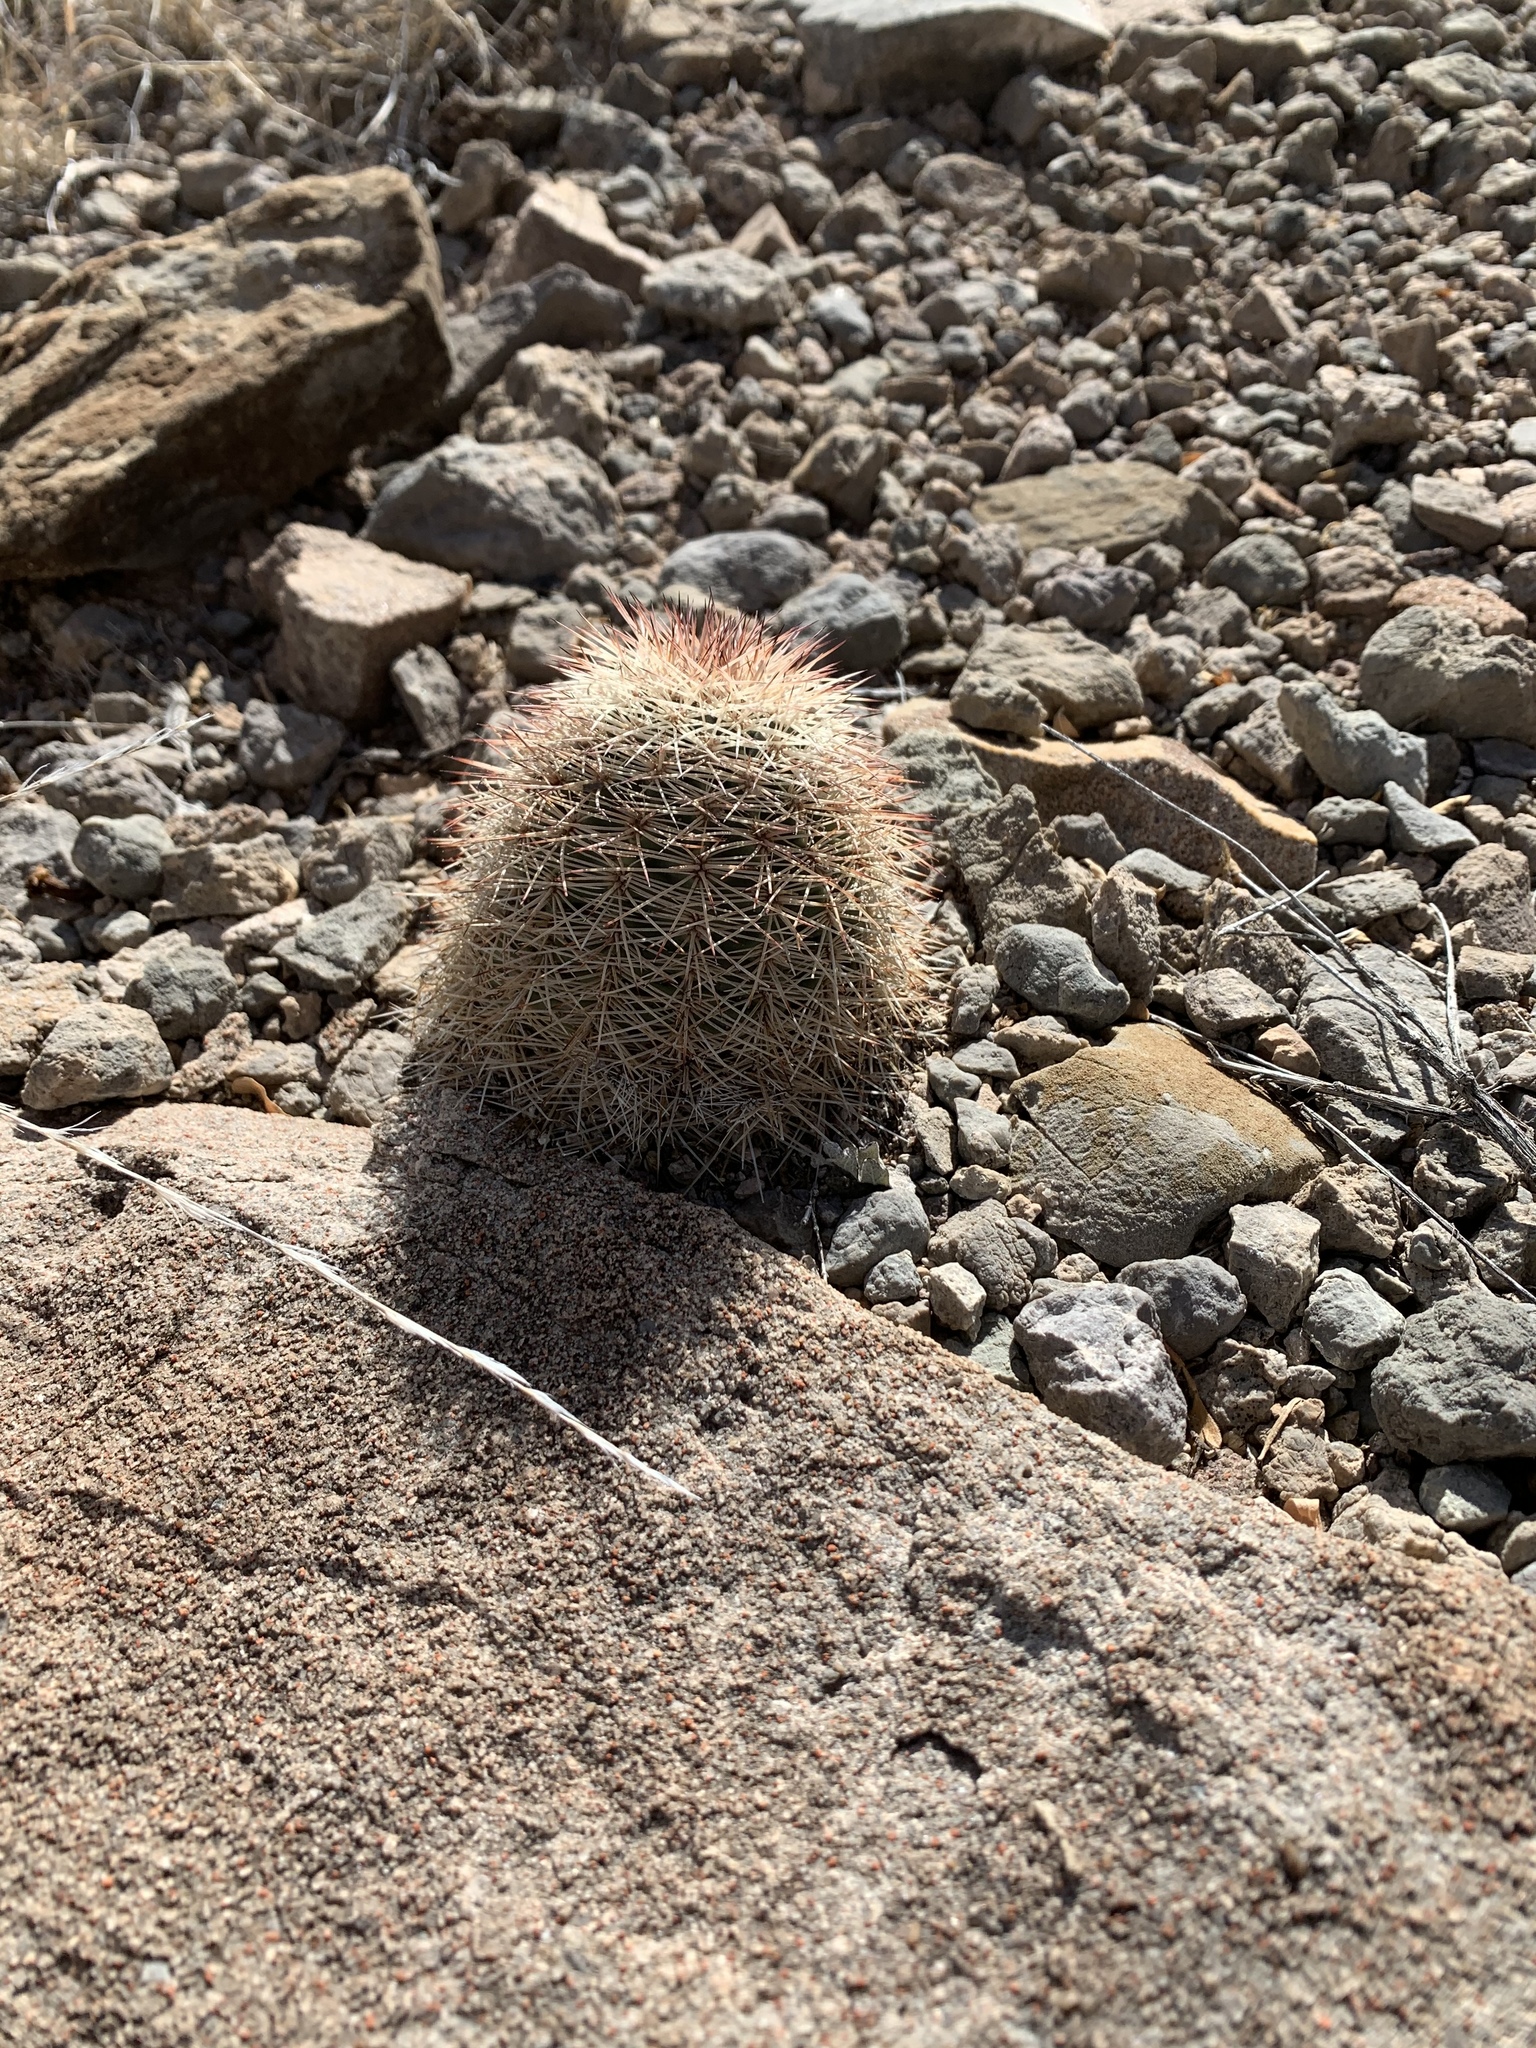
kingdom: Plantae
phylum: Tracheophyta
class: Magnoliopsida
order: Caryophyllales
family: Cactaceae
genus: Echinocereus
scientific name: Echinocereus dasyacanthus
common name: Spiny hedgehog cactus
